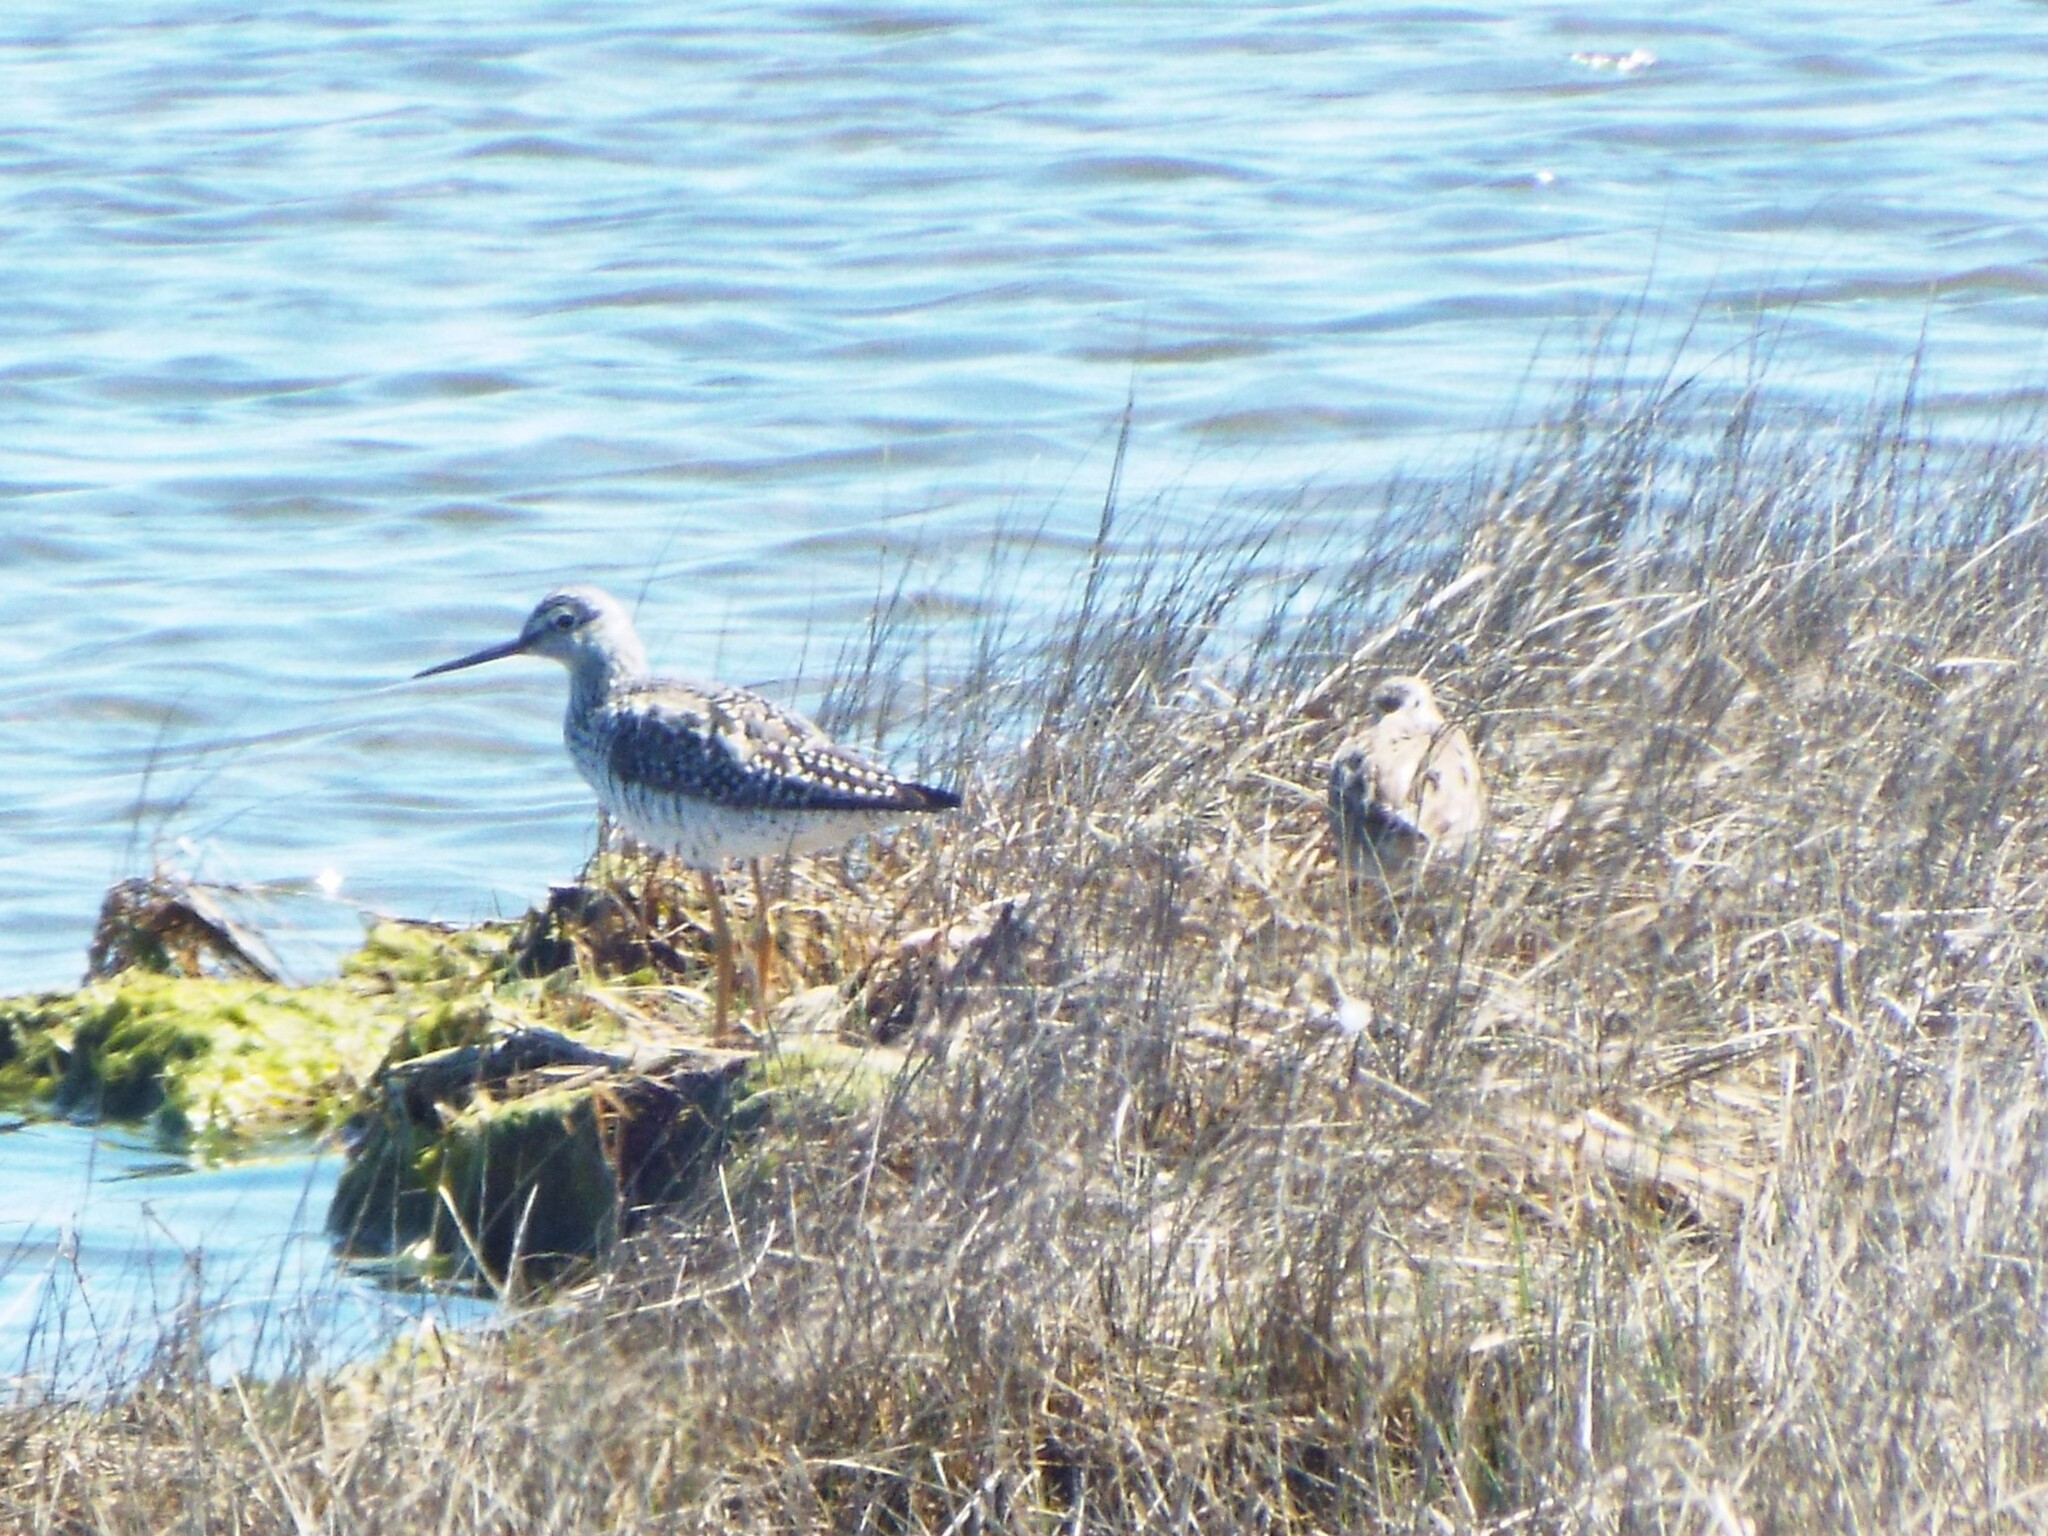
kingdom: Animalia
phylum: Chordata
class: Aves
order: Charadriiformes
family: Scolopacidae
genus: Tringa
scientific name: Tringa melanoleuca
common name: Greater yellowlegs
